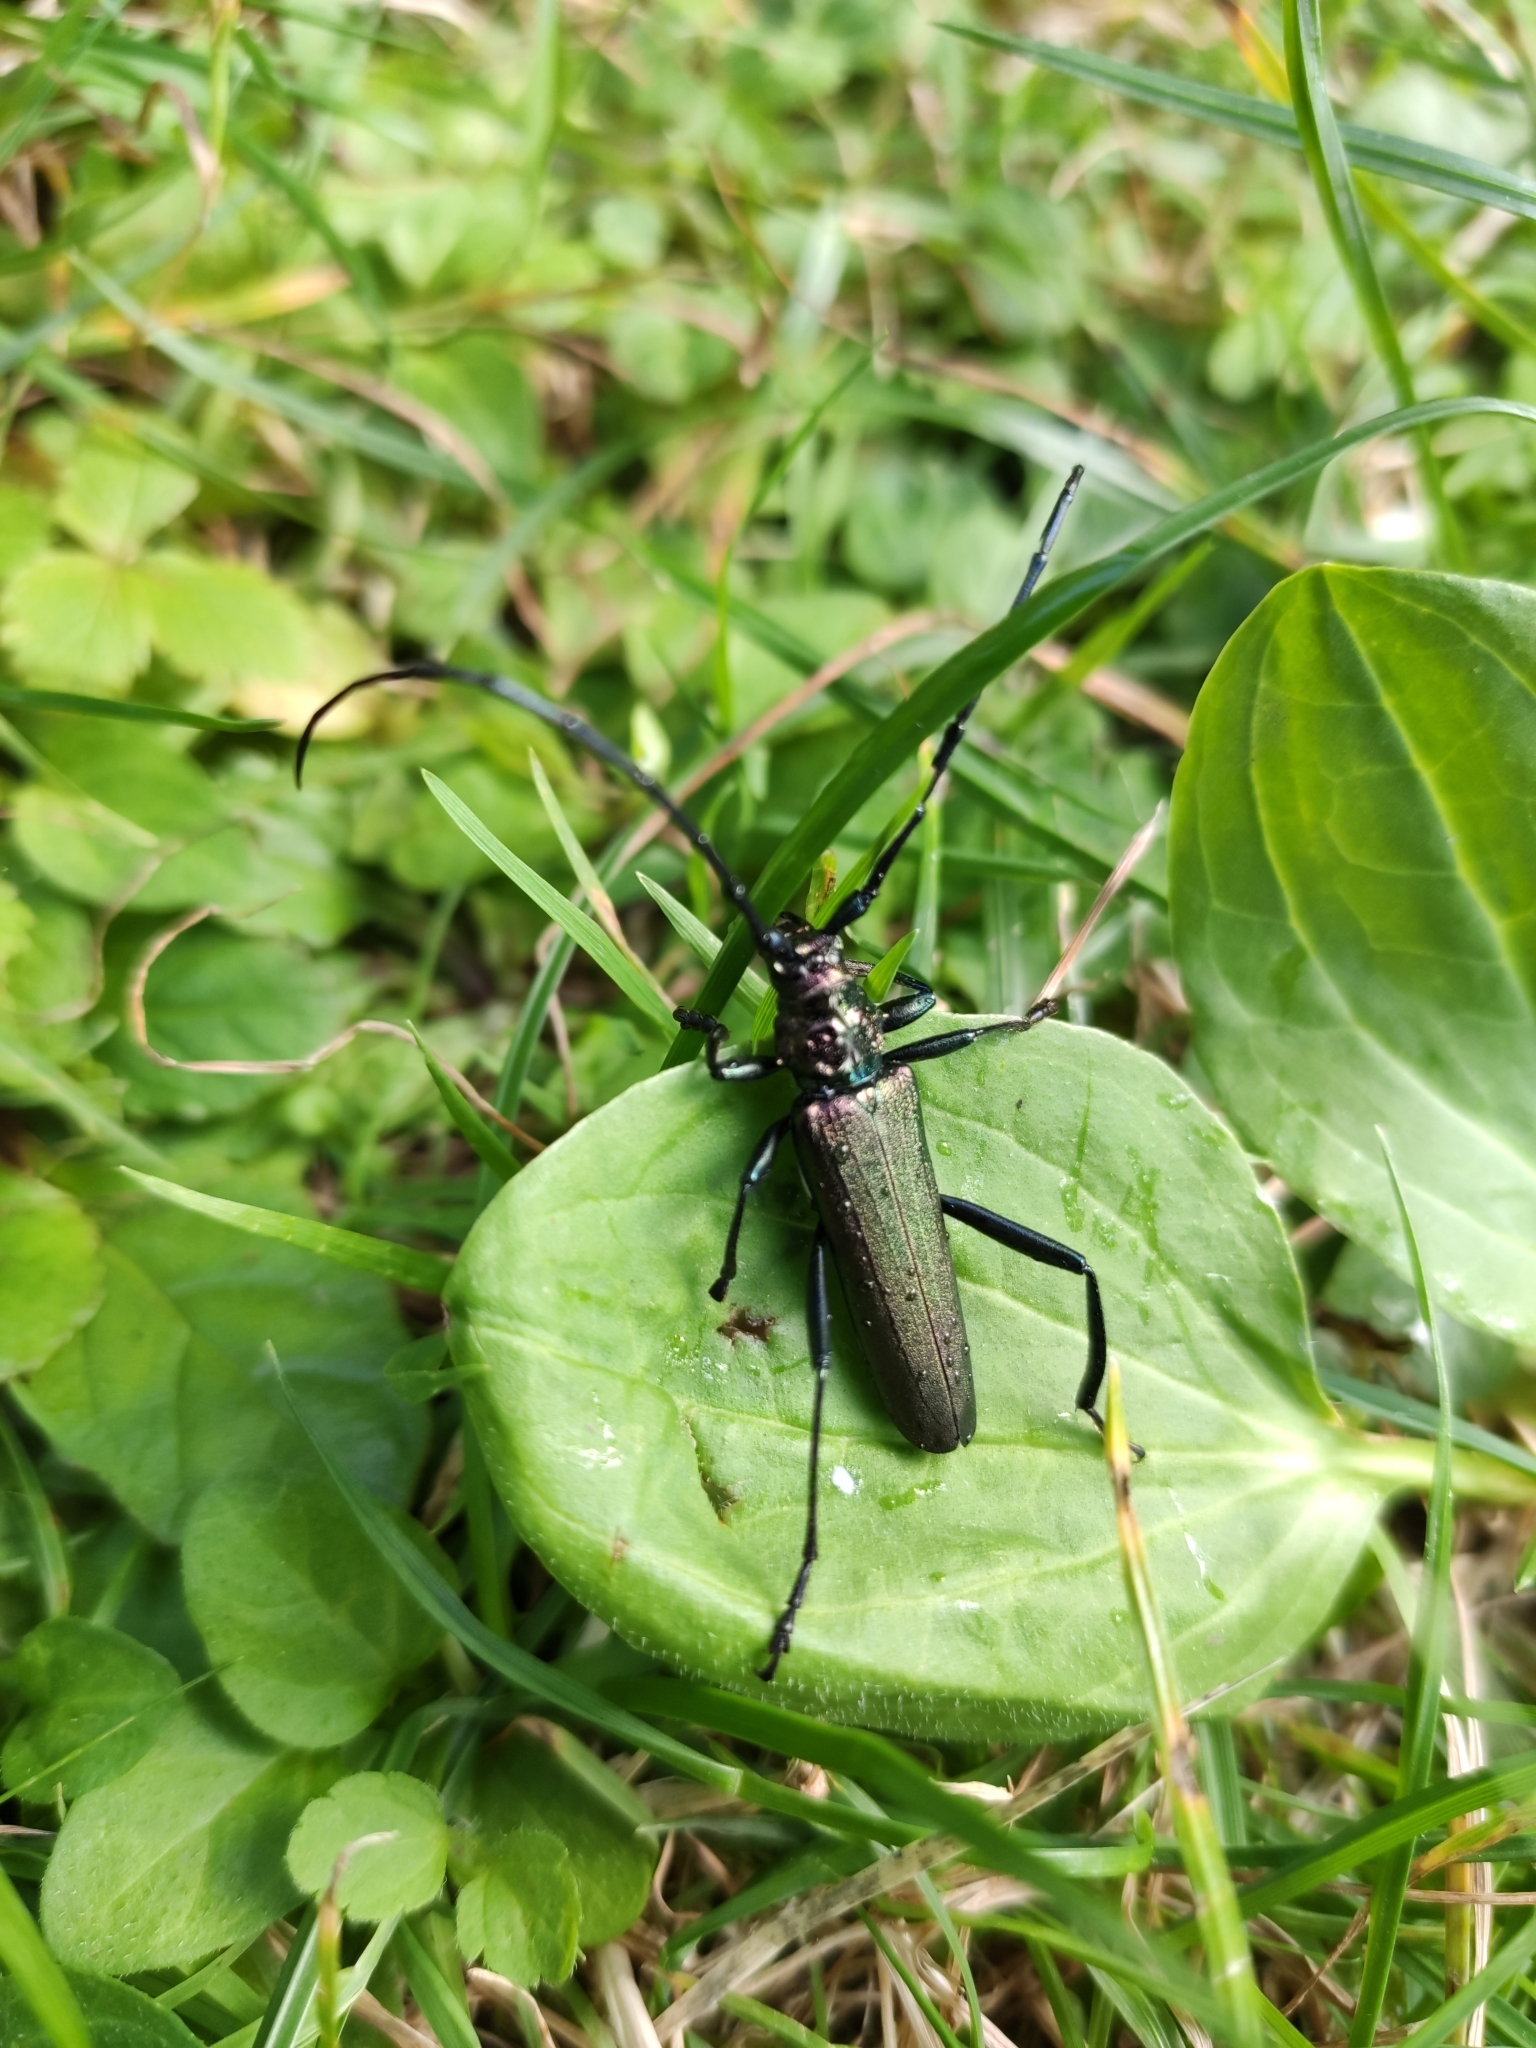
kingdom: Animalia
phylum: Arthropoda
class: Insecta
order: Coleoptera
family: Cerambycidae
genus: Aromia
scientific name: Aromia moschata
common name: Musk beetle
